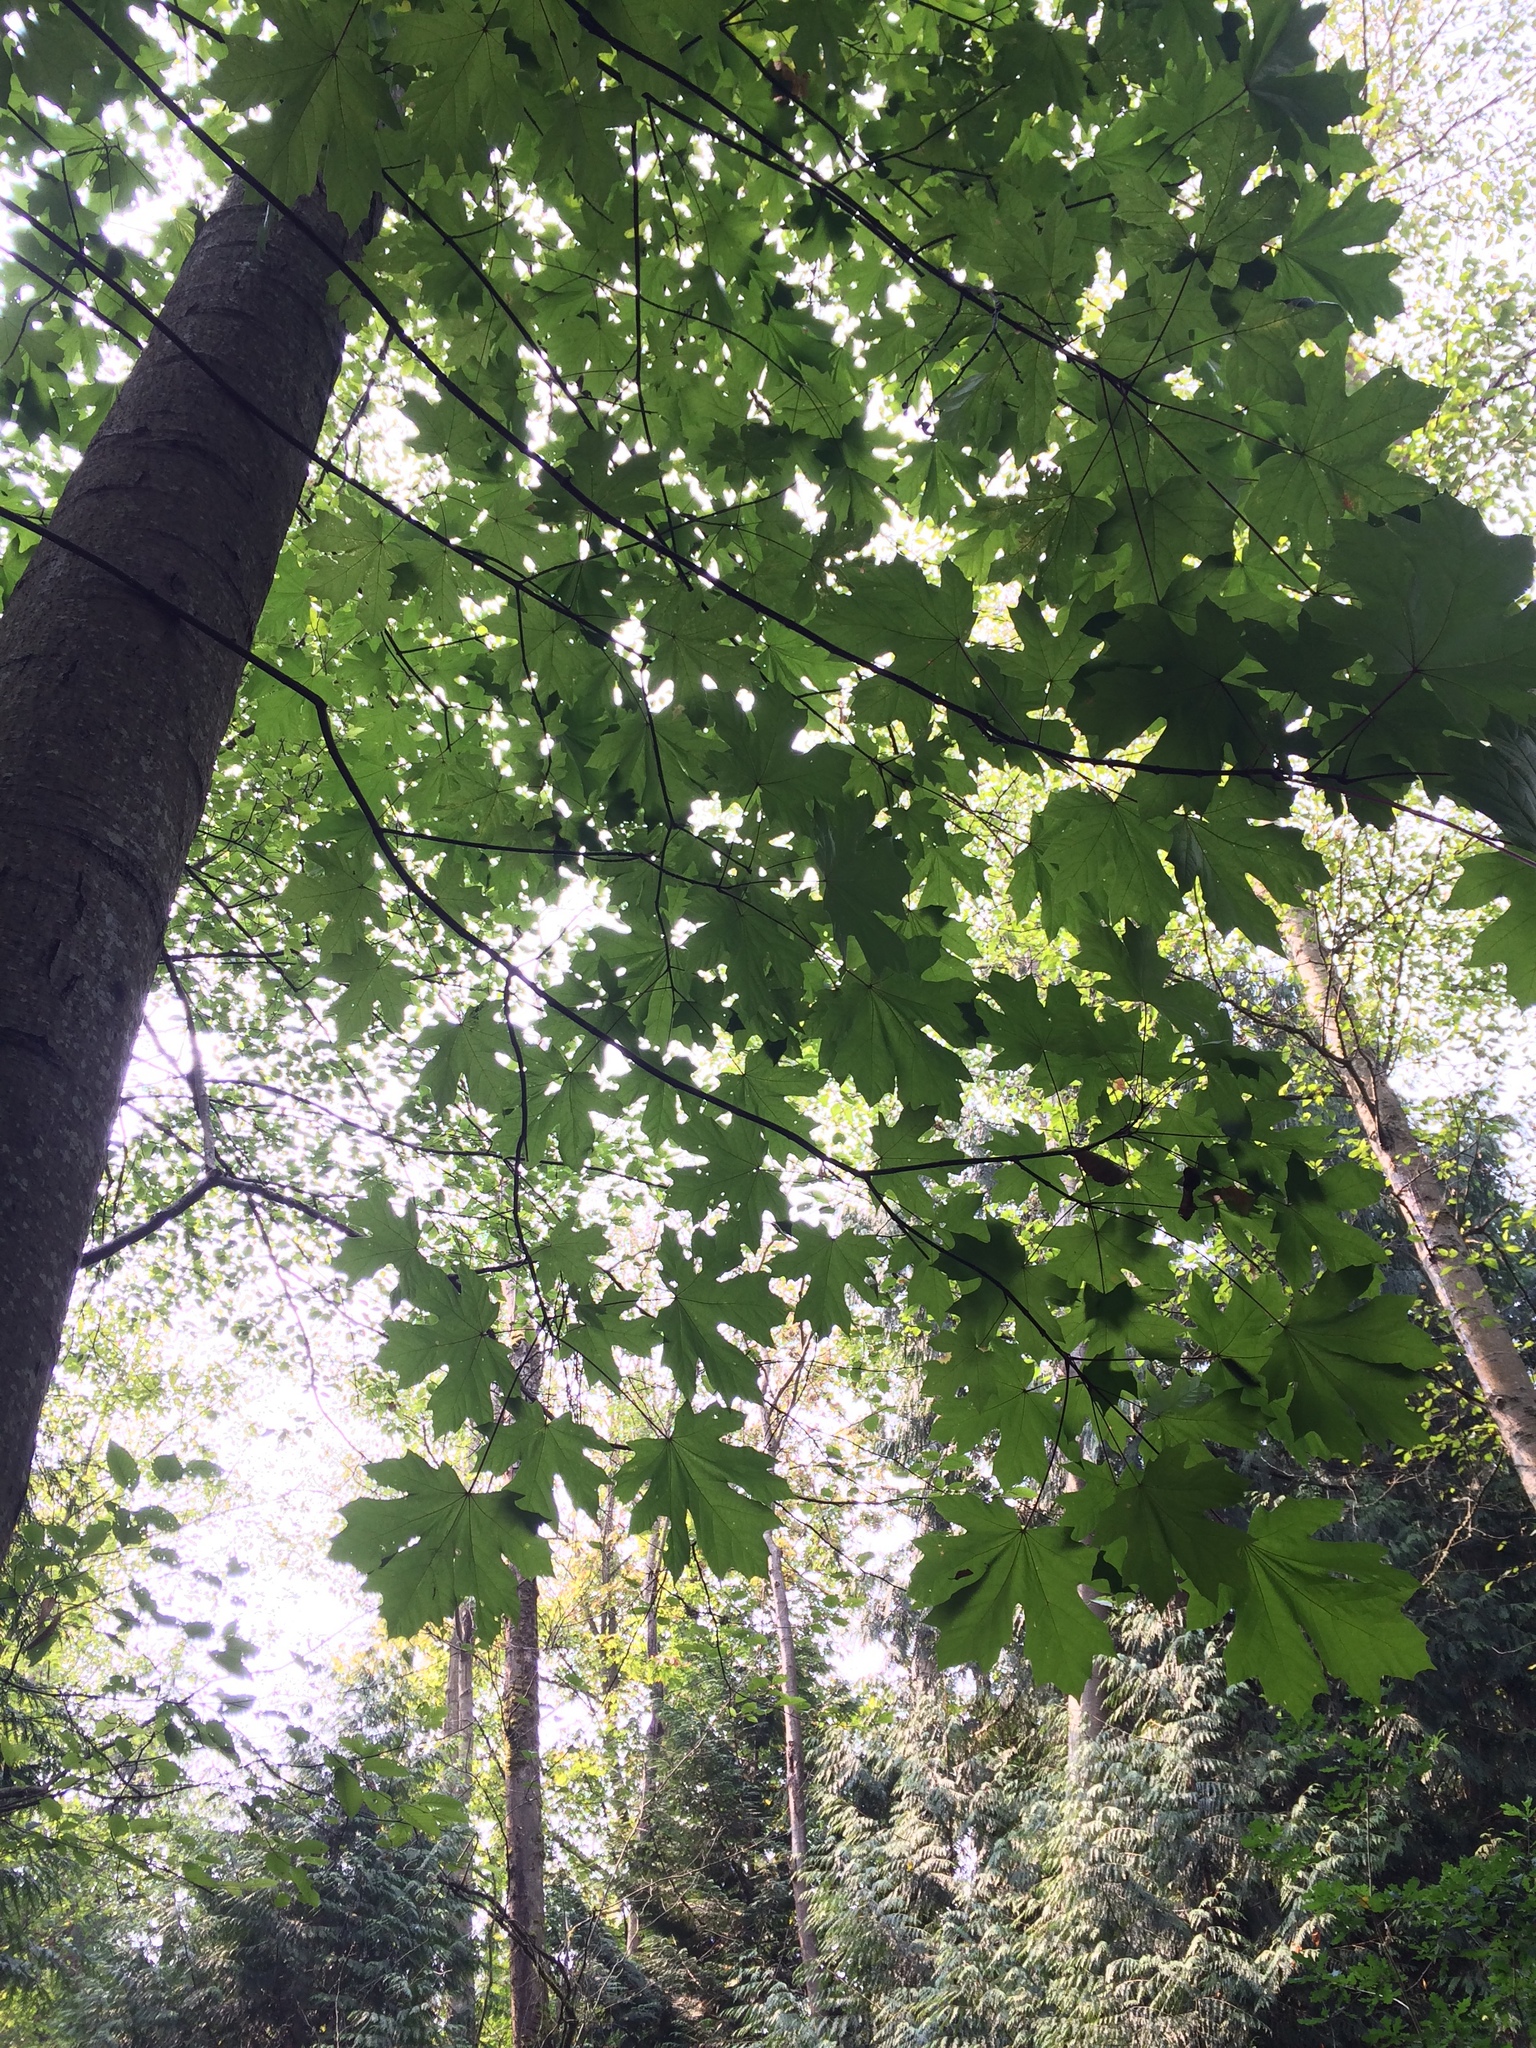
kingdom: Plantae
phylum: Tracheophyta
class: Magnoliopsida
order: Sapindales
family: Sapindaceae
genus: Acer
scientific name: Acer macrophyllum
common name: Oregon maple
